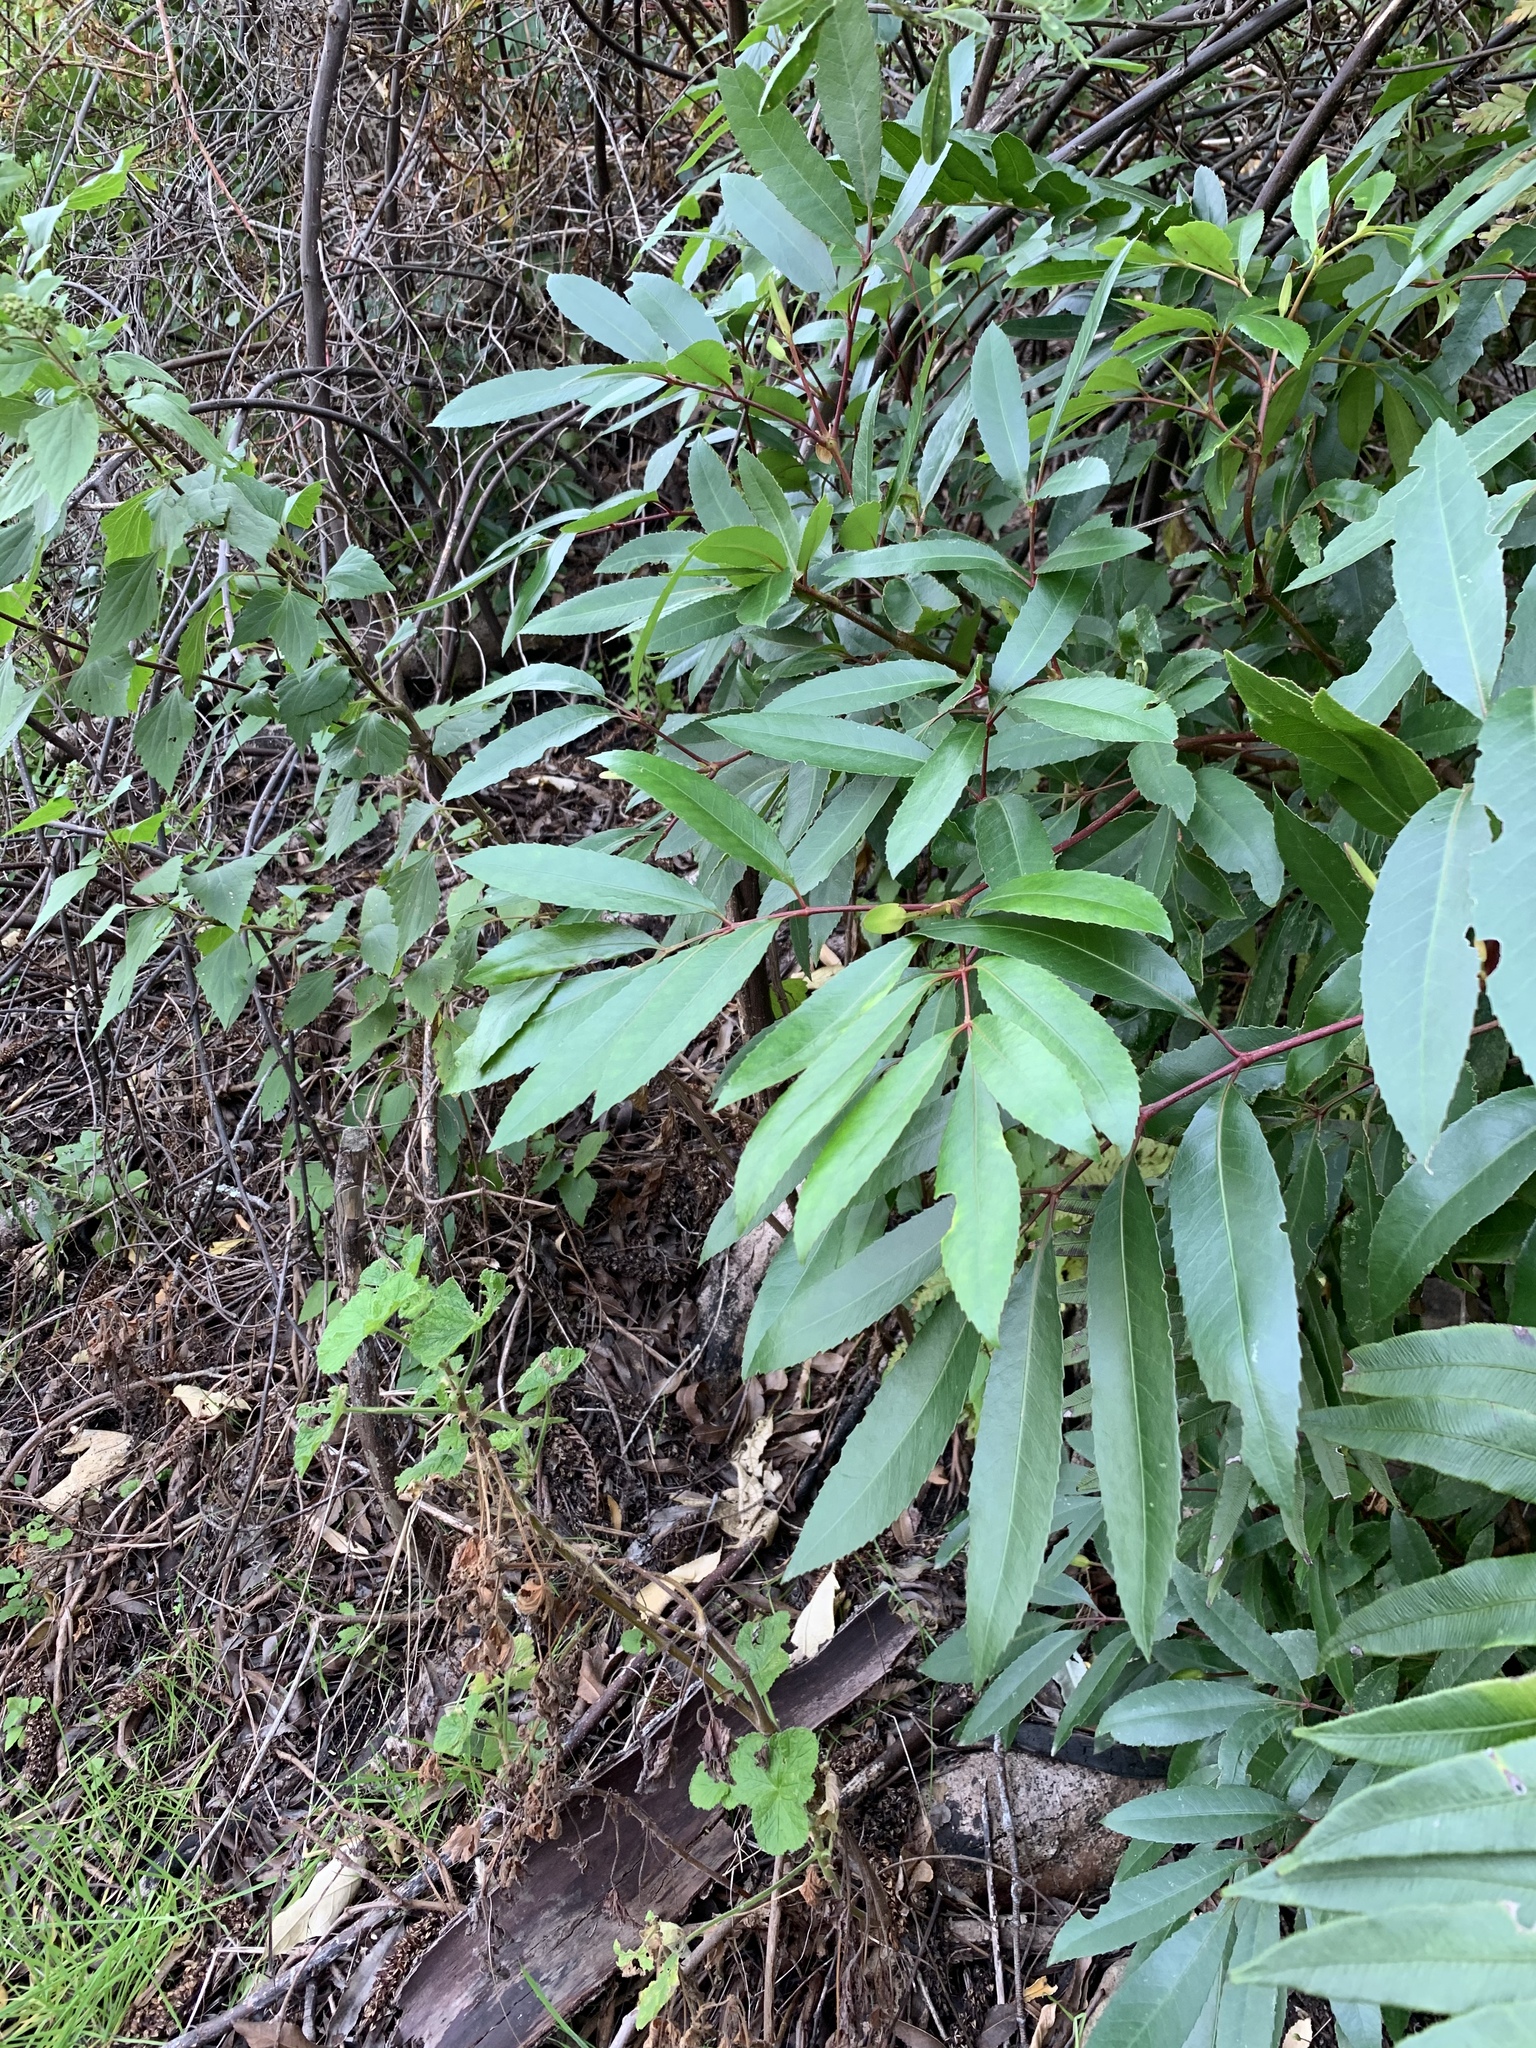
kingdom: Plantae
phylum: Tracheophyta
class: Magnoliopsida
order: Oxalidales
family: Cunoniaceae
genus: Cunonia
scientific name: Cunonia capensis
